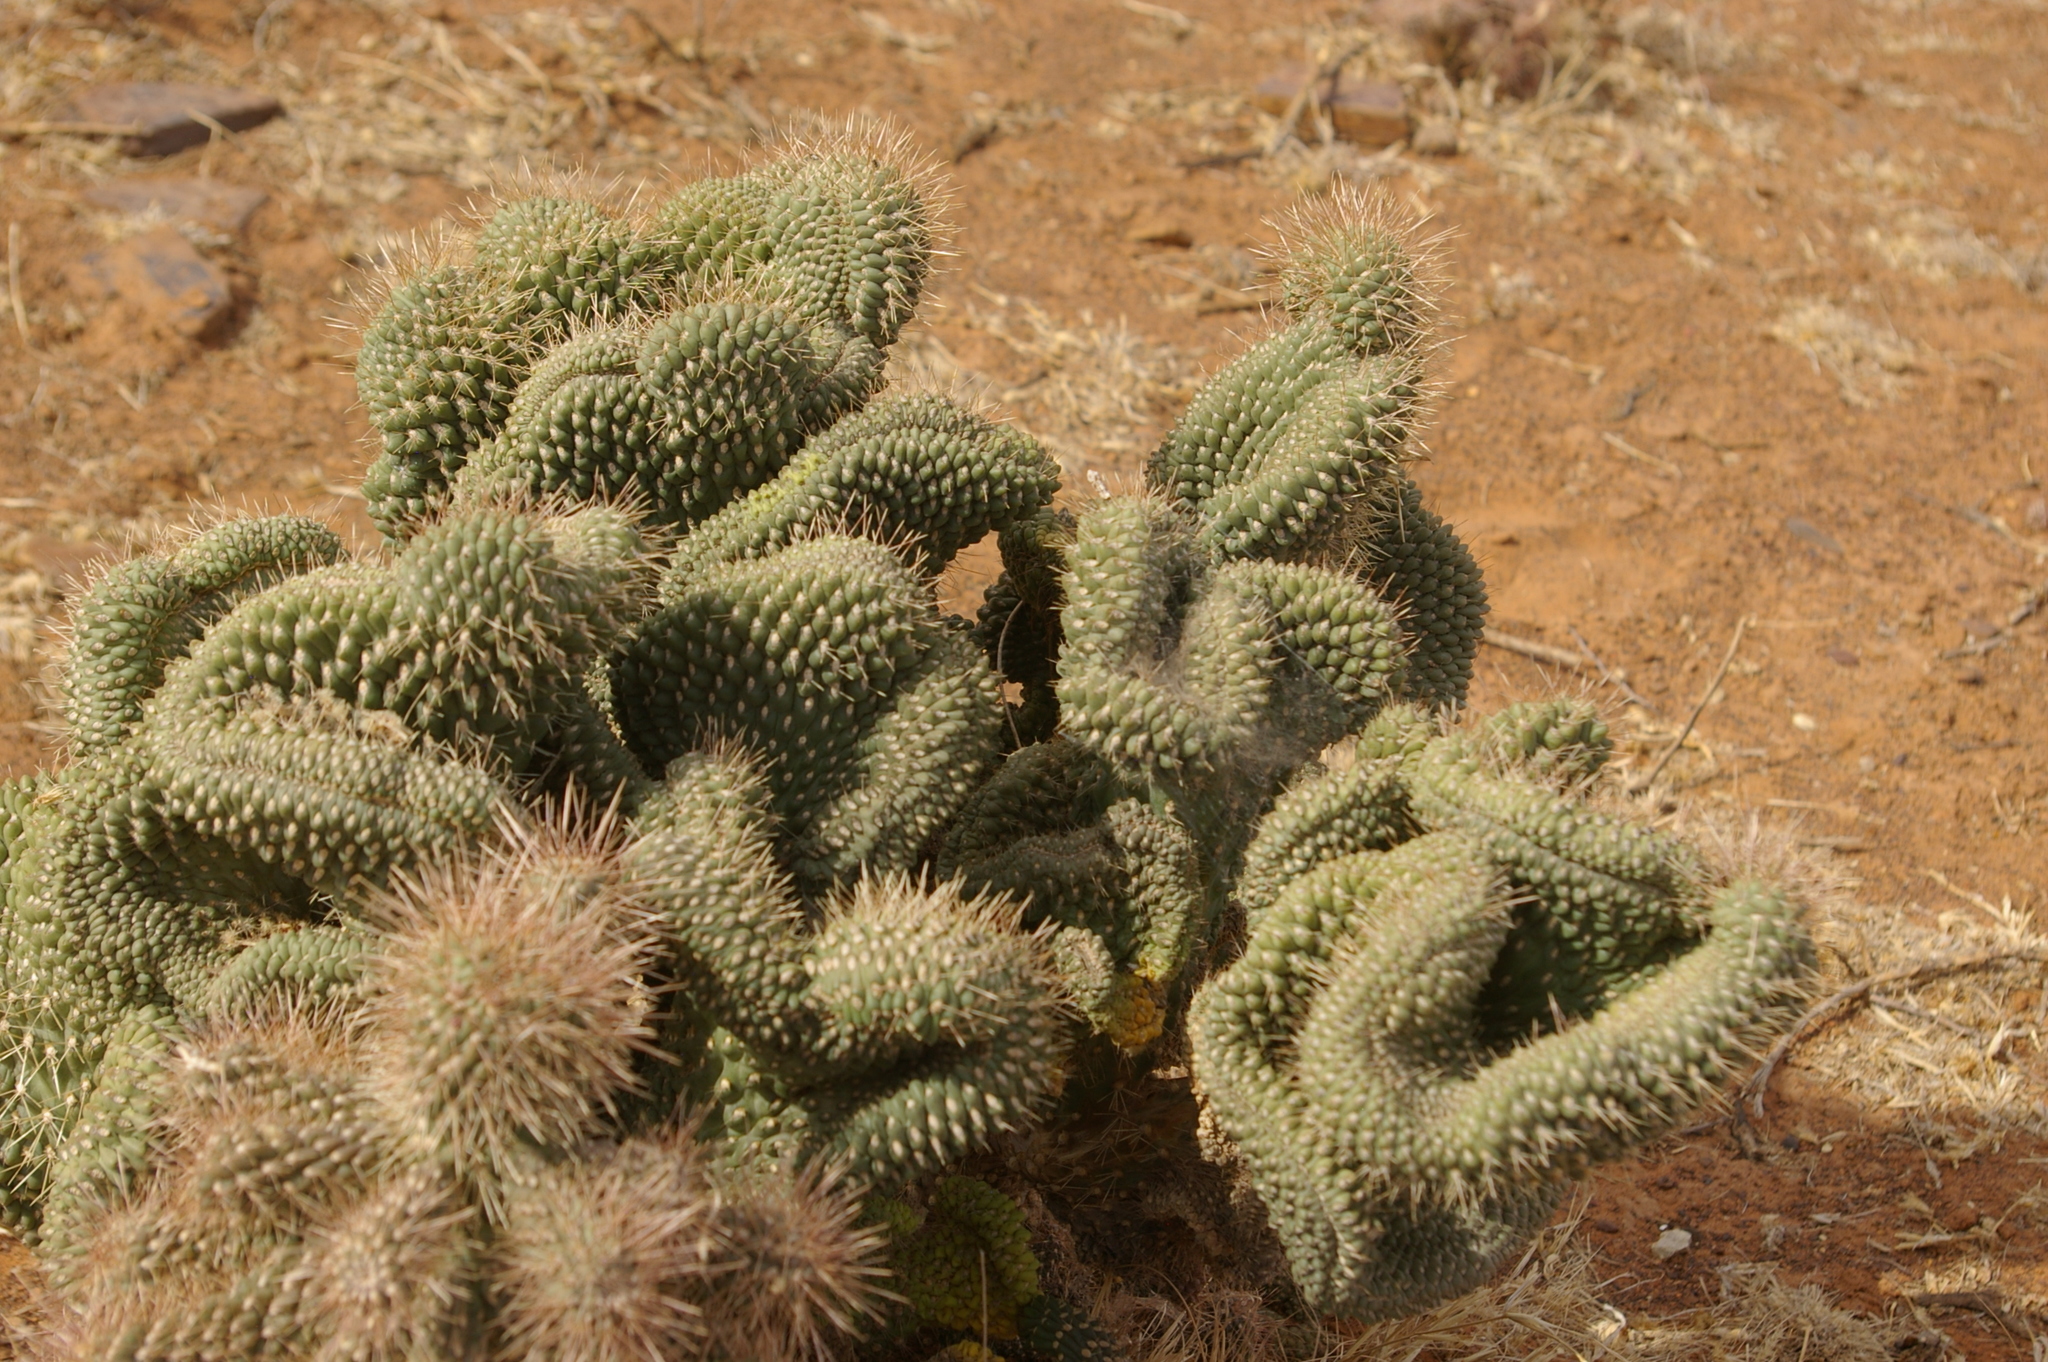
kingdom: Plantae
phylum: Tracheophyta
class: Magnoliopsida
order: Caryophyllales
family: Cactaceae
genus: Cylindropuntia
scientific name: Cylindropuntia fulgida
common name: Jumping cholla
